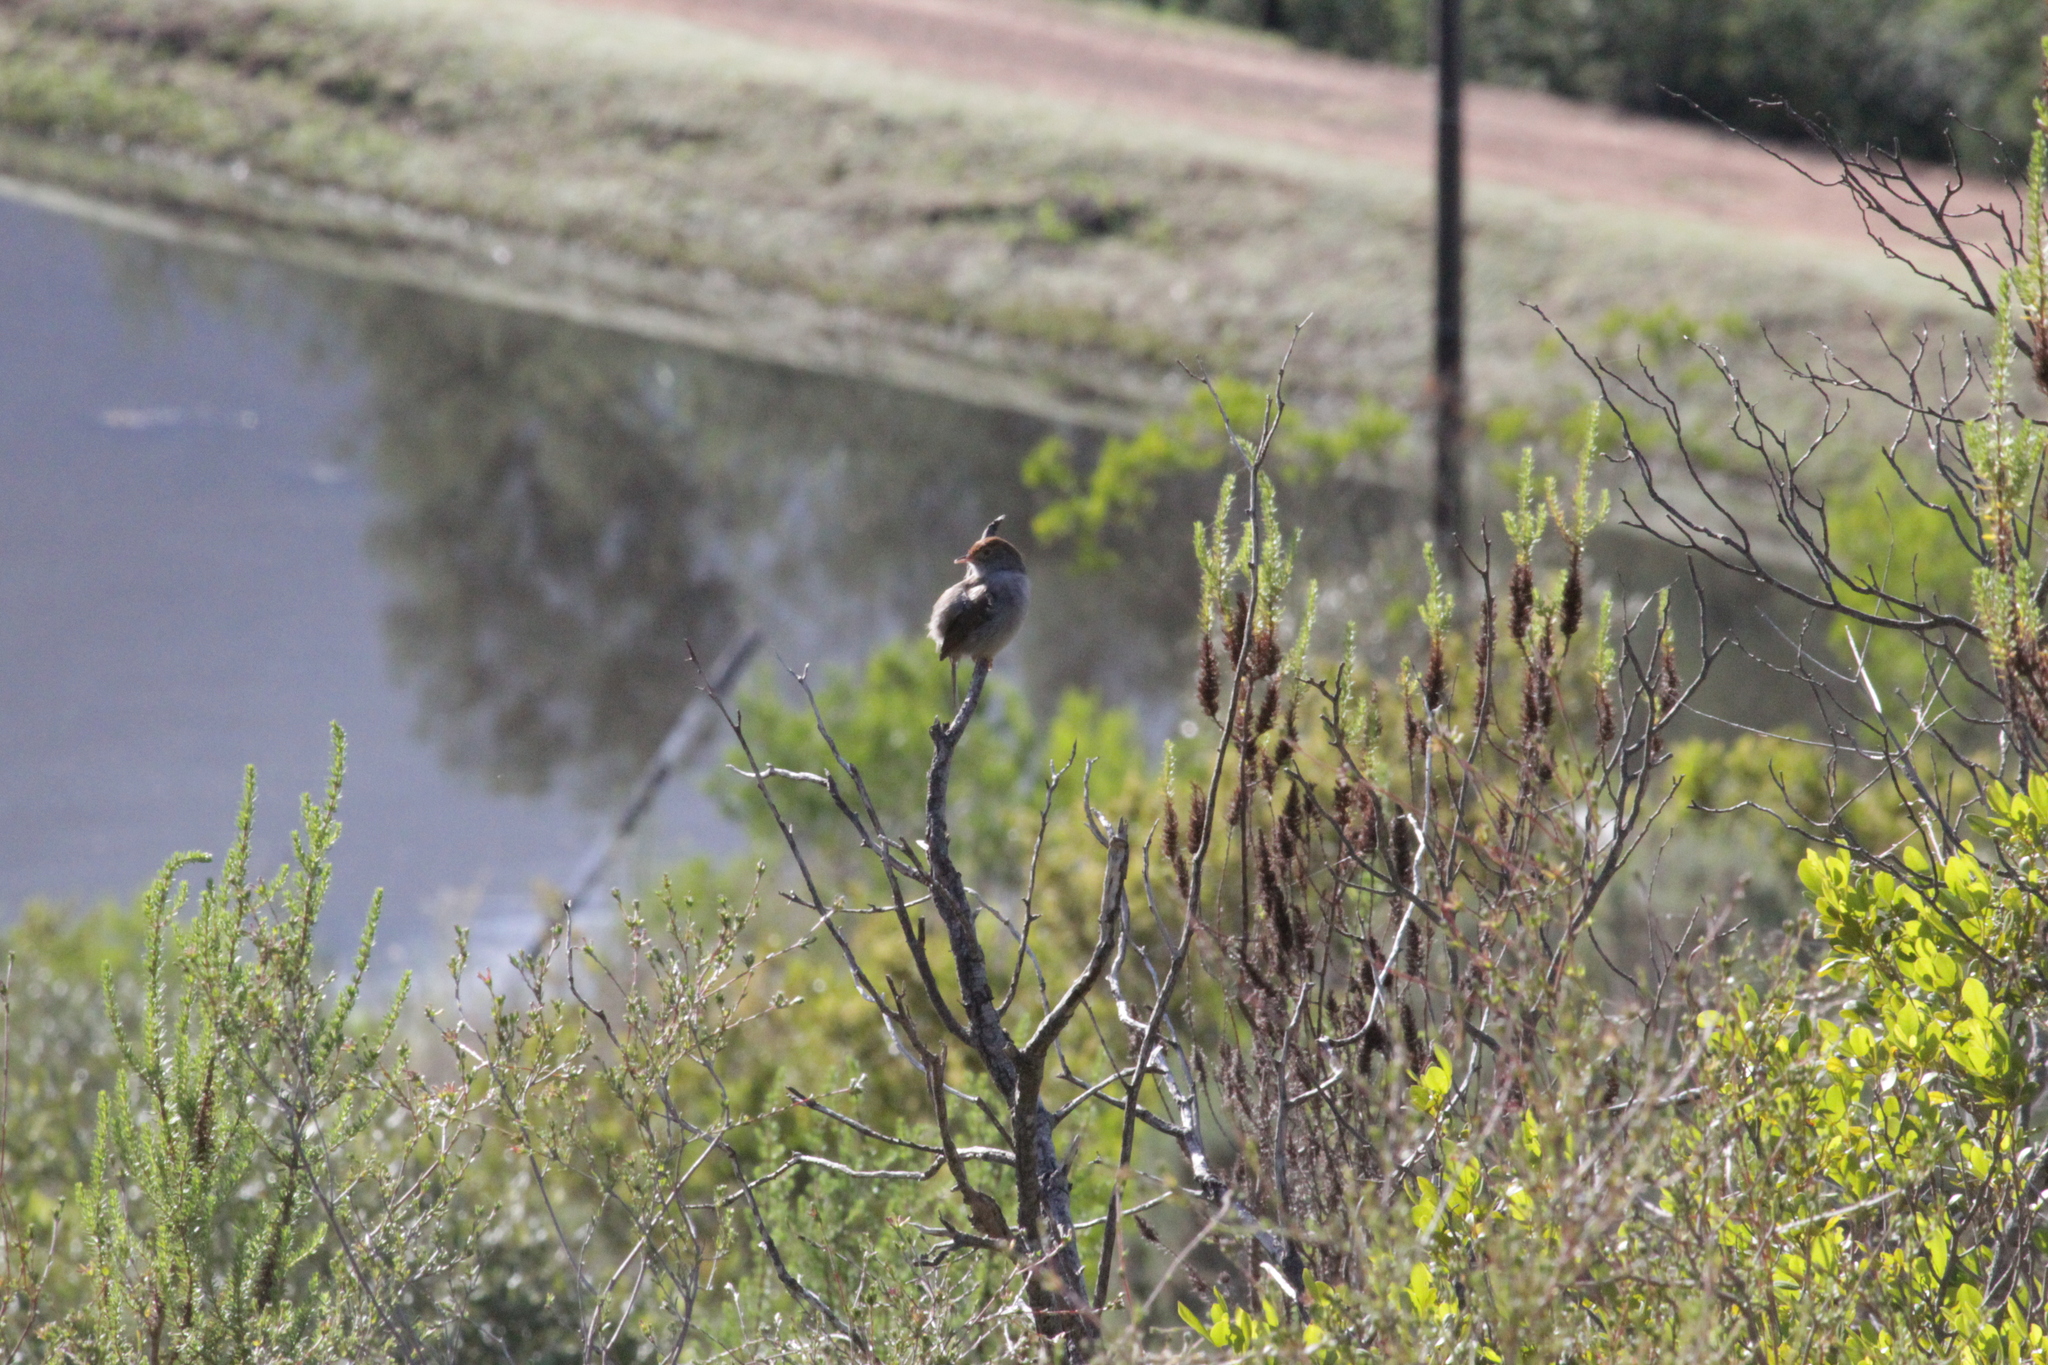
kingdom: Animalia
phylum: Chordata
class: Aves
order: Passeriformes
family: Cisticolidae
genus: Cisticola
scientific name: Cisticola fulvicapilla
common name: Neddicky
